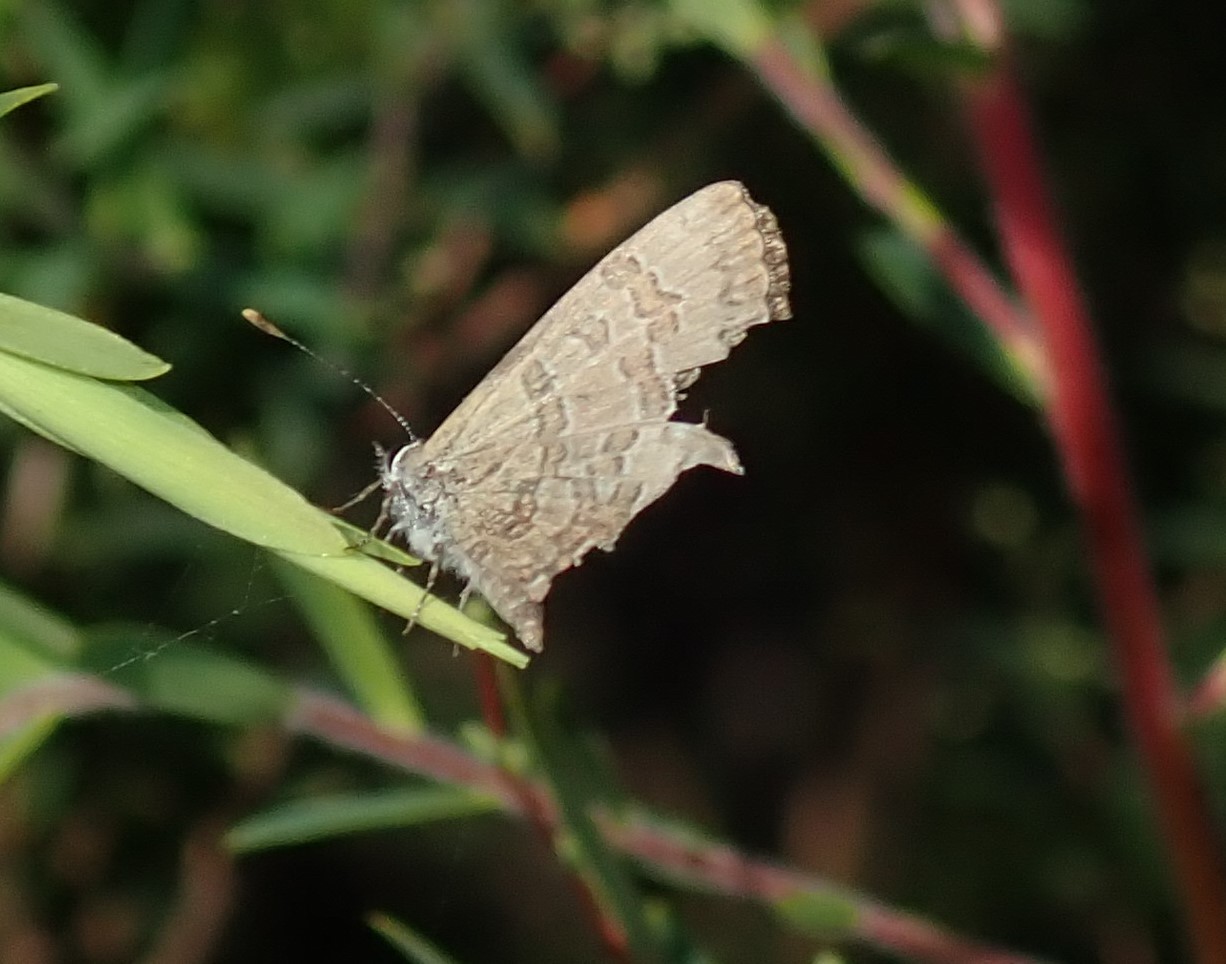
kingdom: Animalia
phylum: Arthropoda
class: Insecta
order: Lepidoptera
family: Lycaenidae
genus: Prosotas
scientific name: Prosotas felderi
